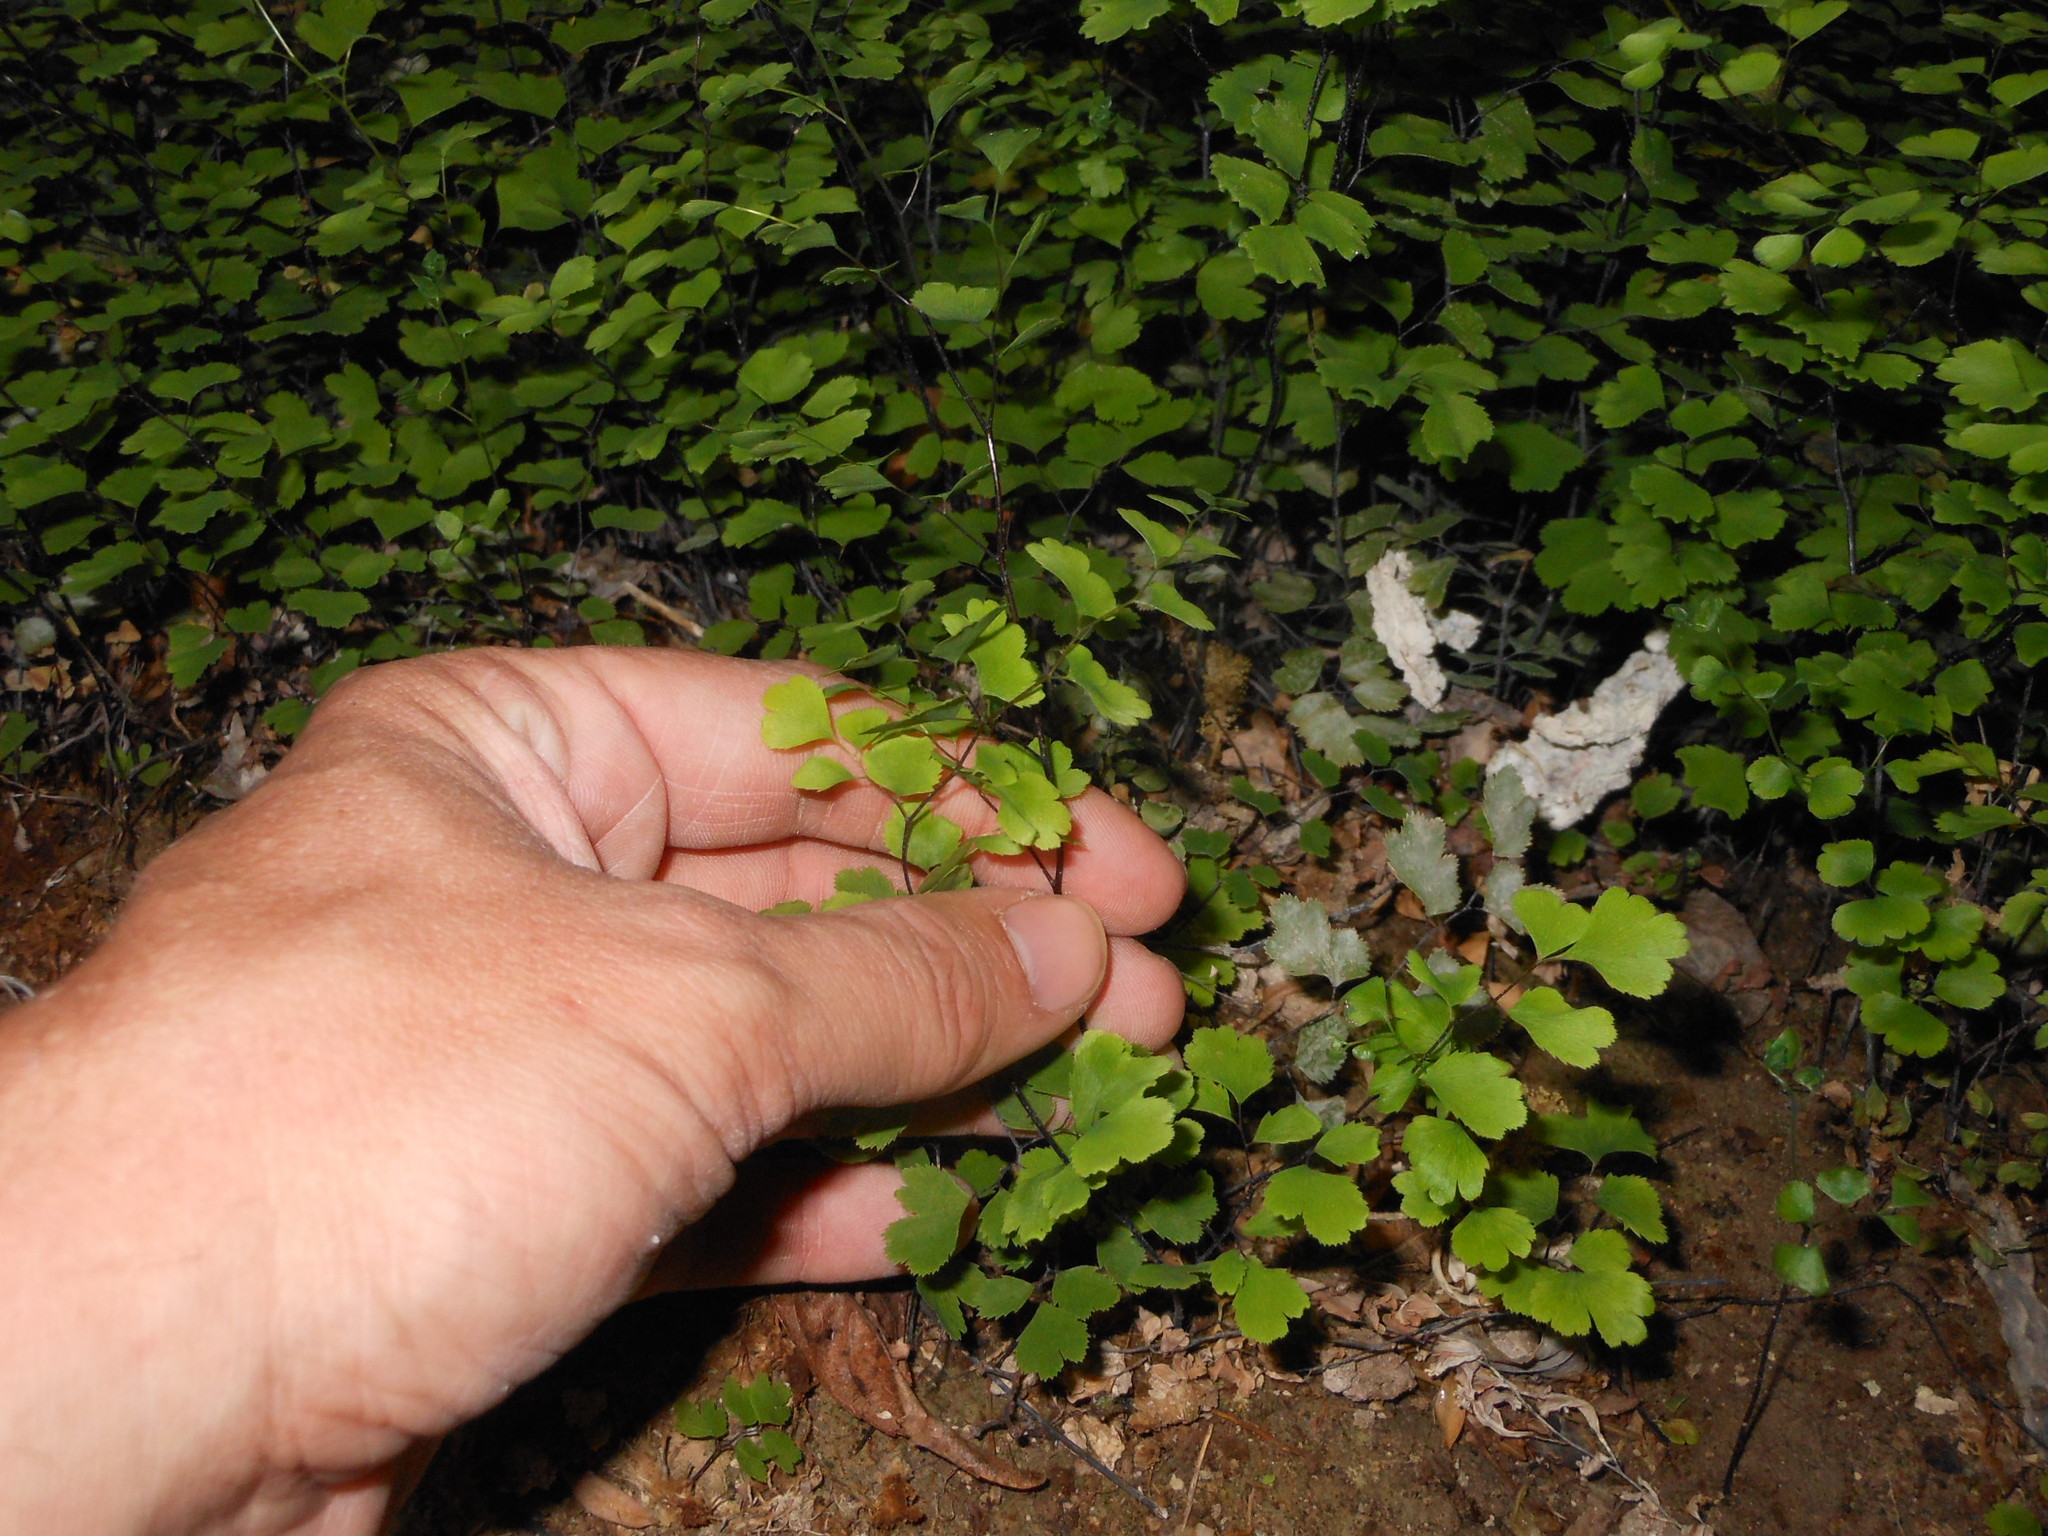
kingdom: Plantae
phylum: Tracheophyta
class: Polypodiopsida
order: Polypodiales
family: Pteridaceae
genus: Adiantum
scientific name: Adiantum capillus-veneris
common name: Maidenhair fern
